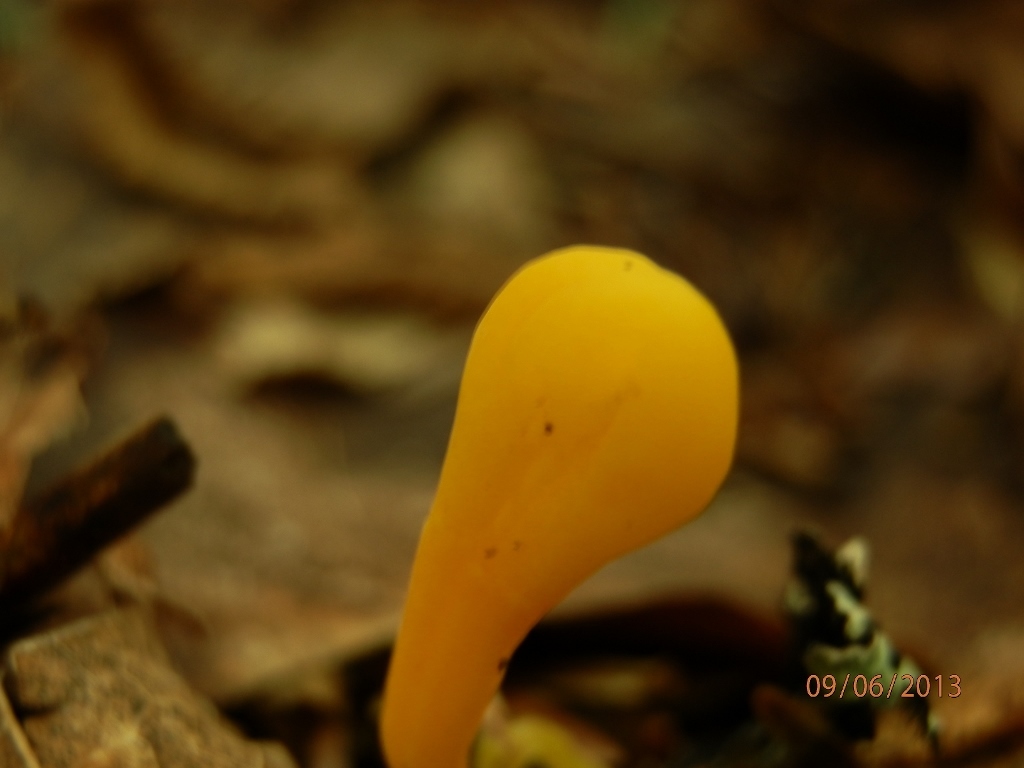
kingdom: Fungi
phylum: Basidiomycota
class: Agaricomycetes
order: Agaricales
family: Clavariaceae
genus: Clavulinopsis
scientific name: Clavulinopsis laeticolor
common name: Handsome club
